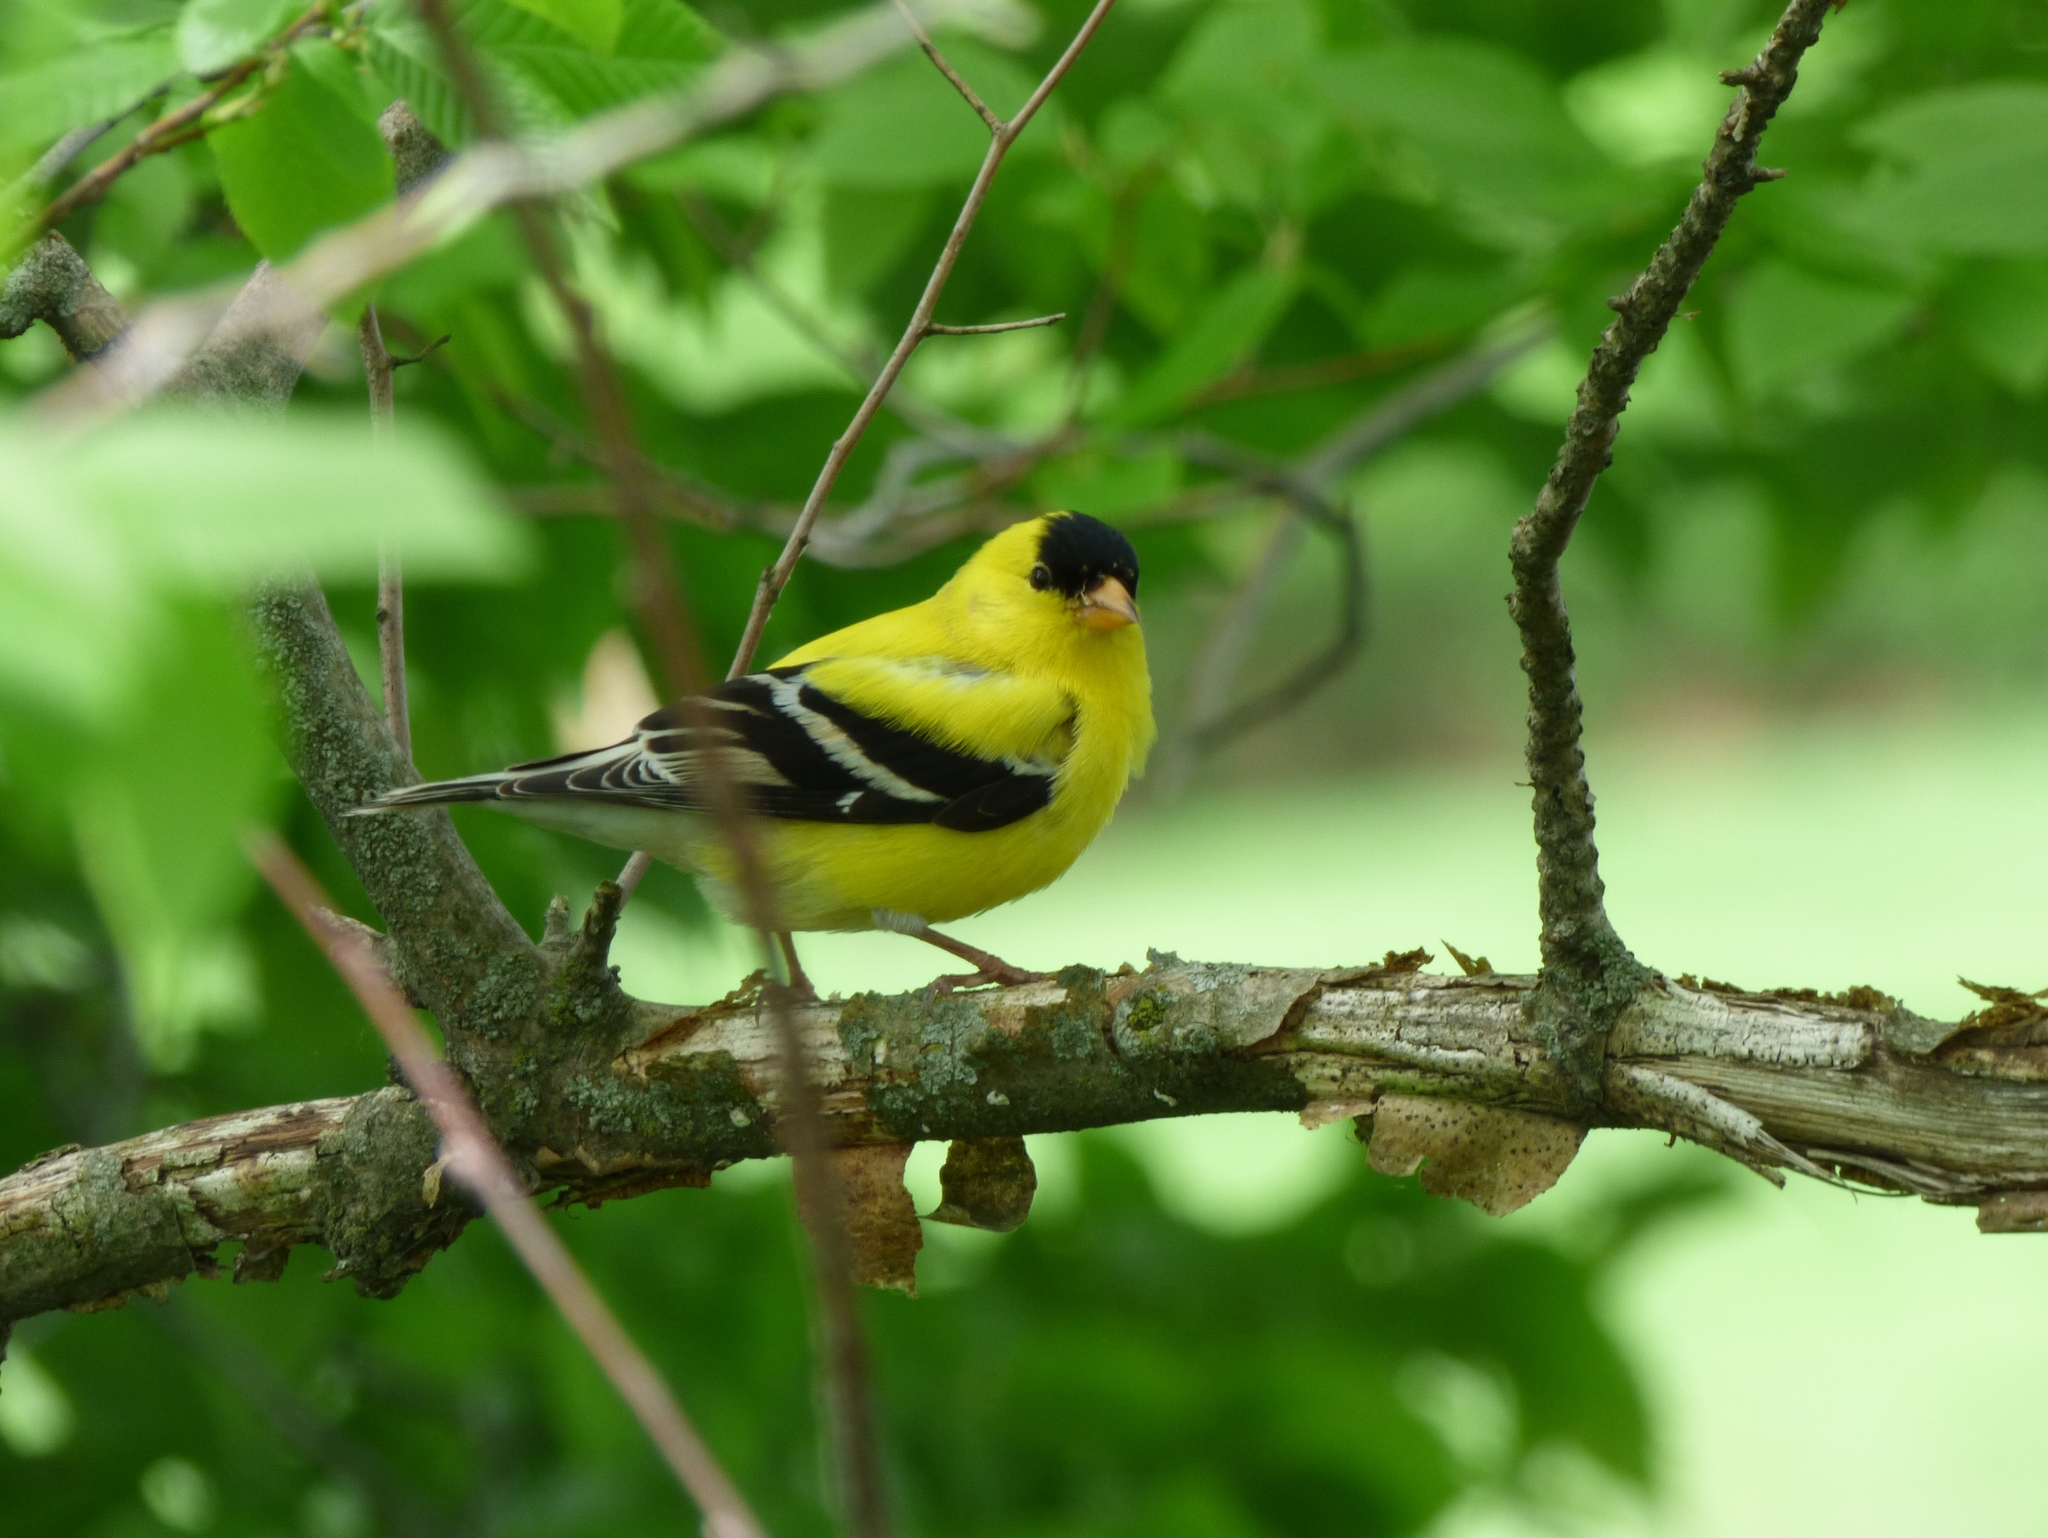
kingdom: Animalia
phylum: Chordata
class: Aves
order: Passeriformes
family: Fringillidae
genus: Spinus
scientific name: Spinus tristis
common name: American goldfinch
